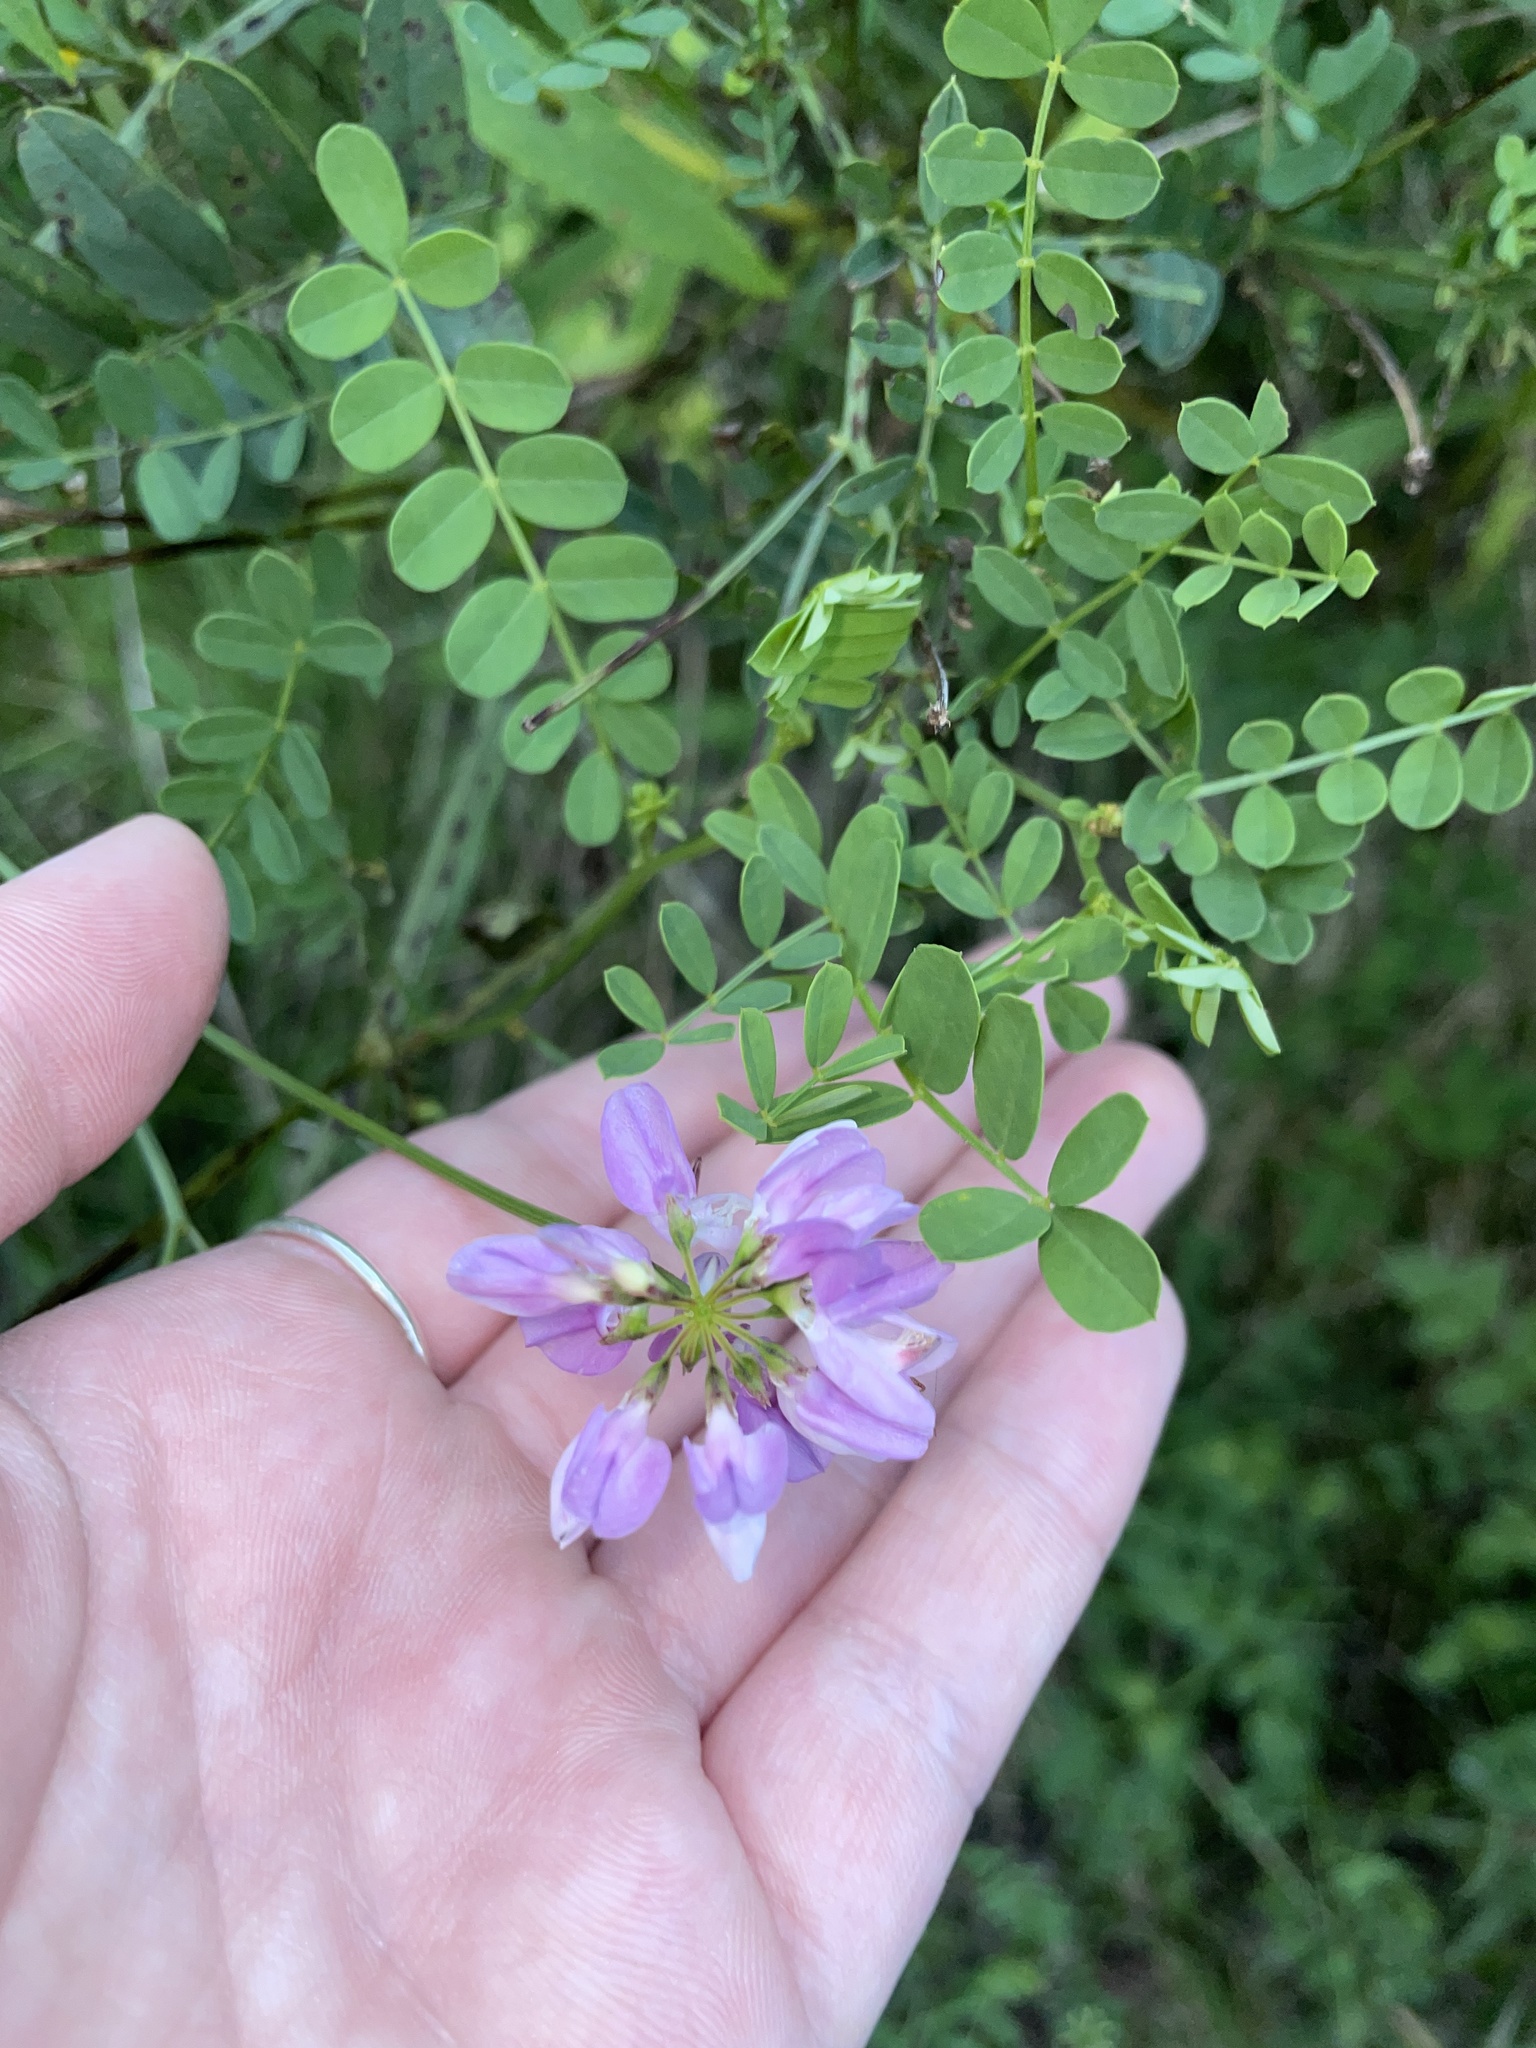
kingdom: Plantae
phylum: Tracheophyta
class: Magnoliopsida
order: Fabales
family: Fabaceae
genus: Coronilla
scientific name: Coronilla varia
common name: Crownvetch
